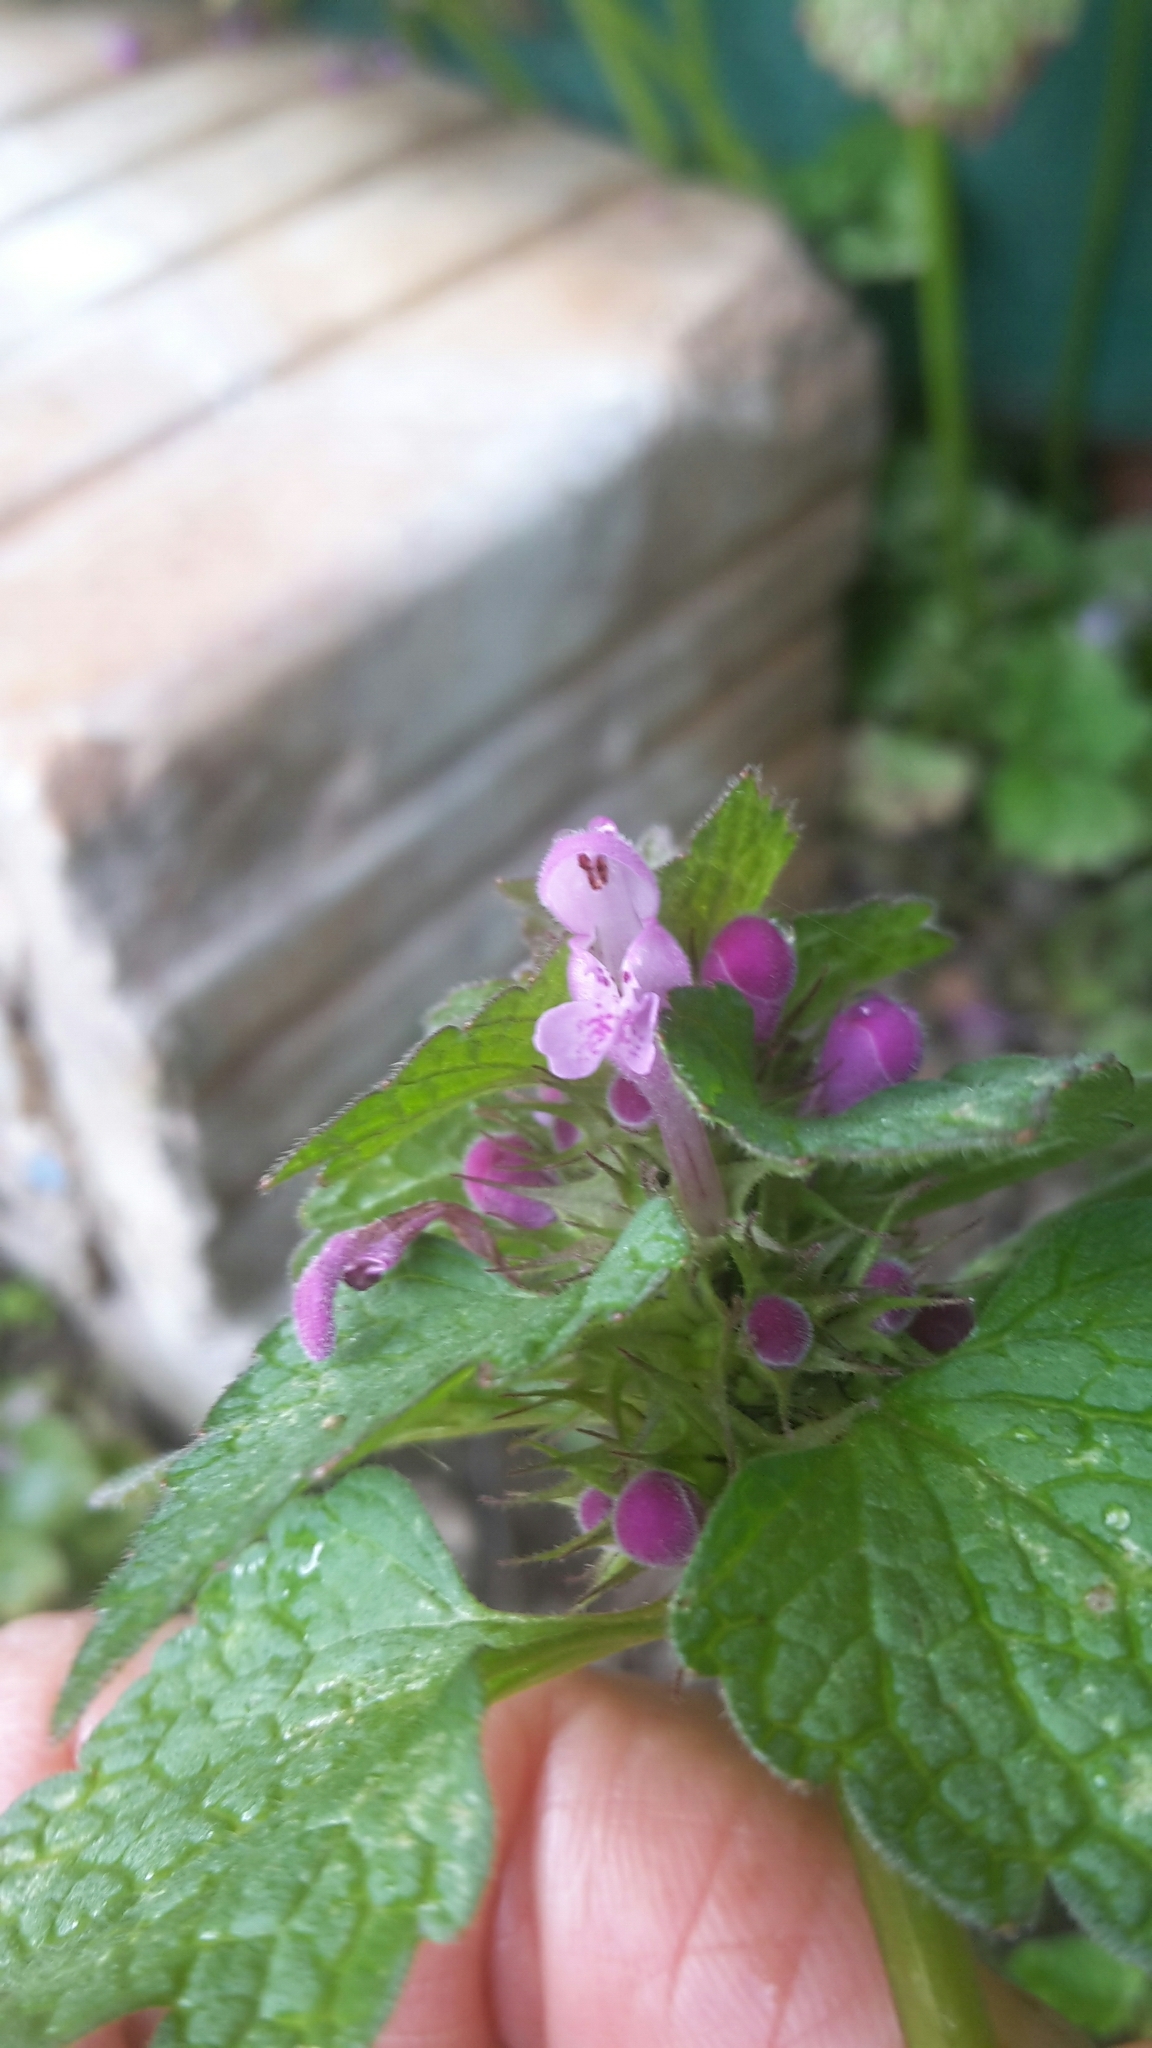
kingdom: Plantae
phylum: Tracheophyta
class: Magnoliopsida
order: Lamiales
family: Lamiaceae
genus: Lamium
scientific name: Lamium purpureum
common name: Red dead-nettle
